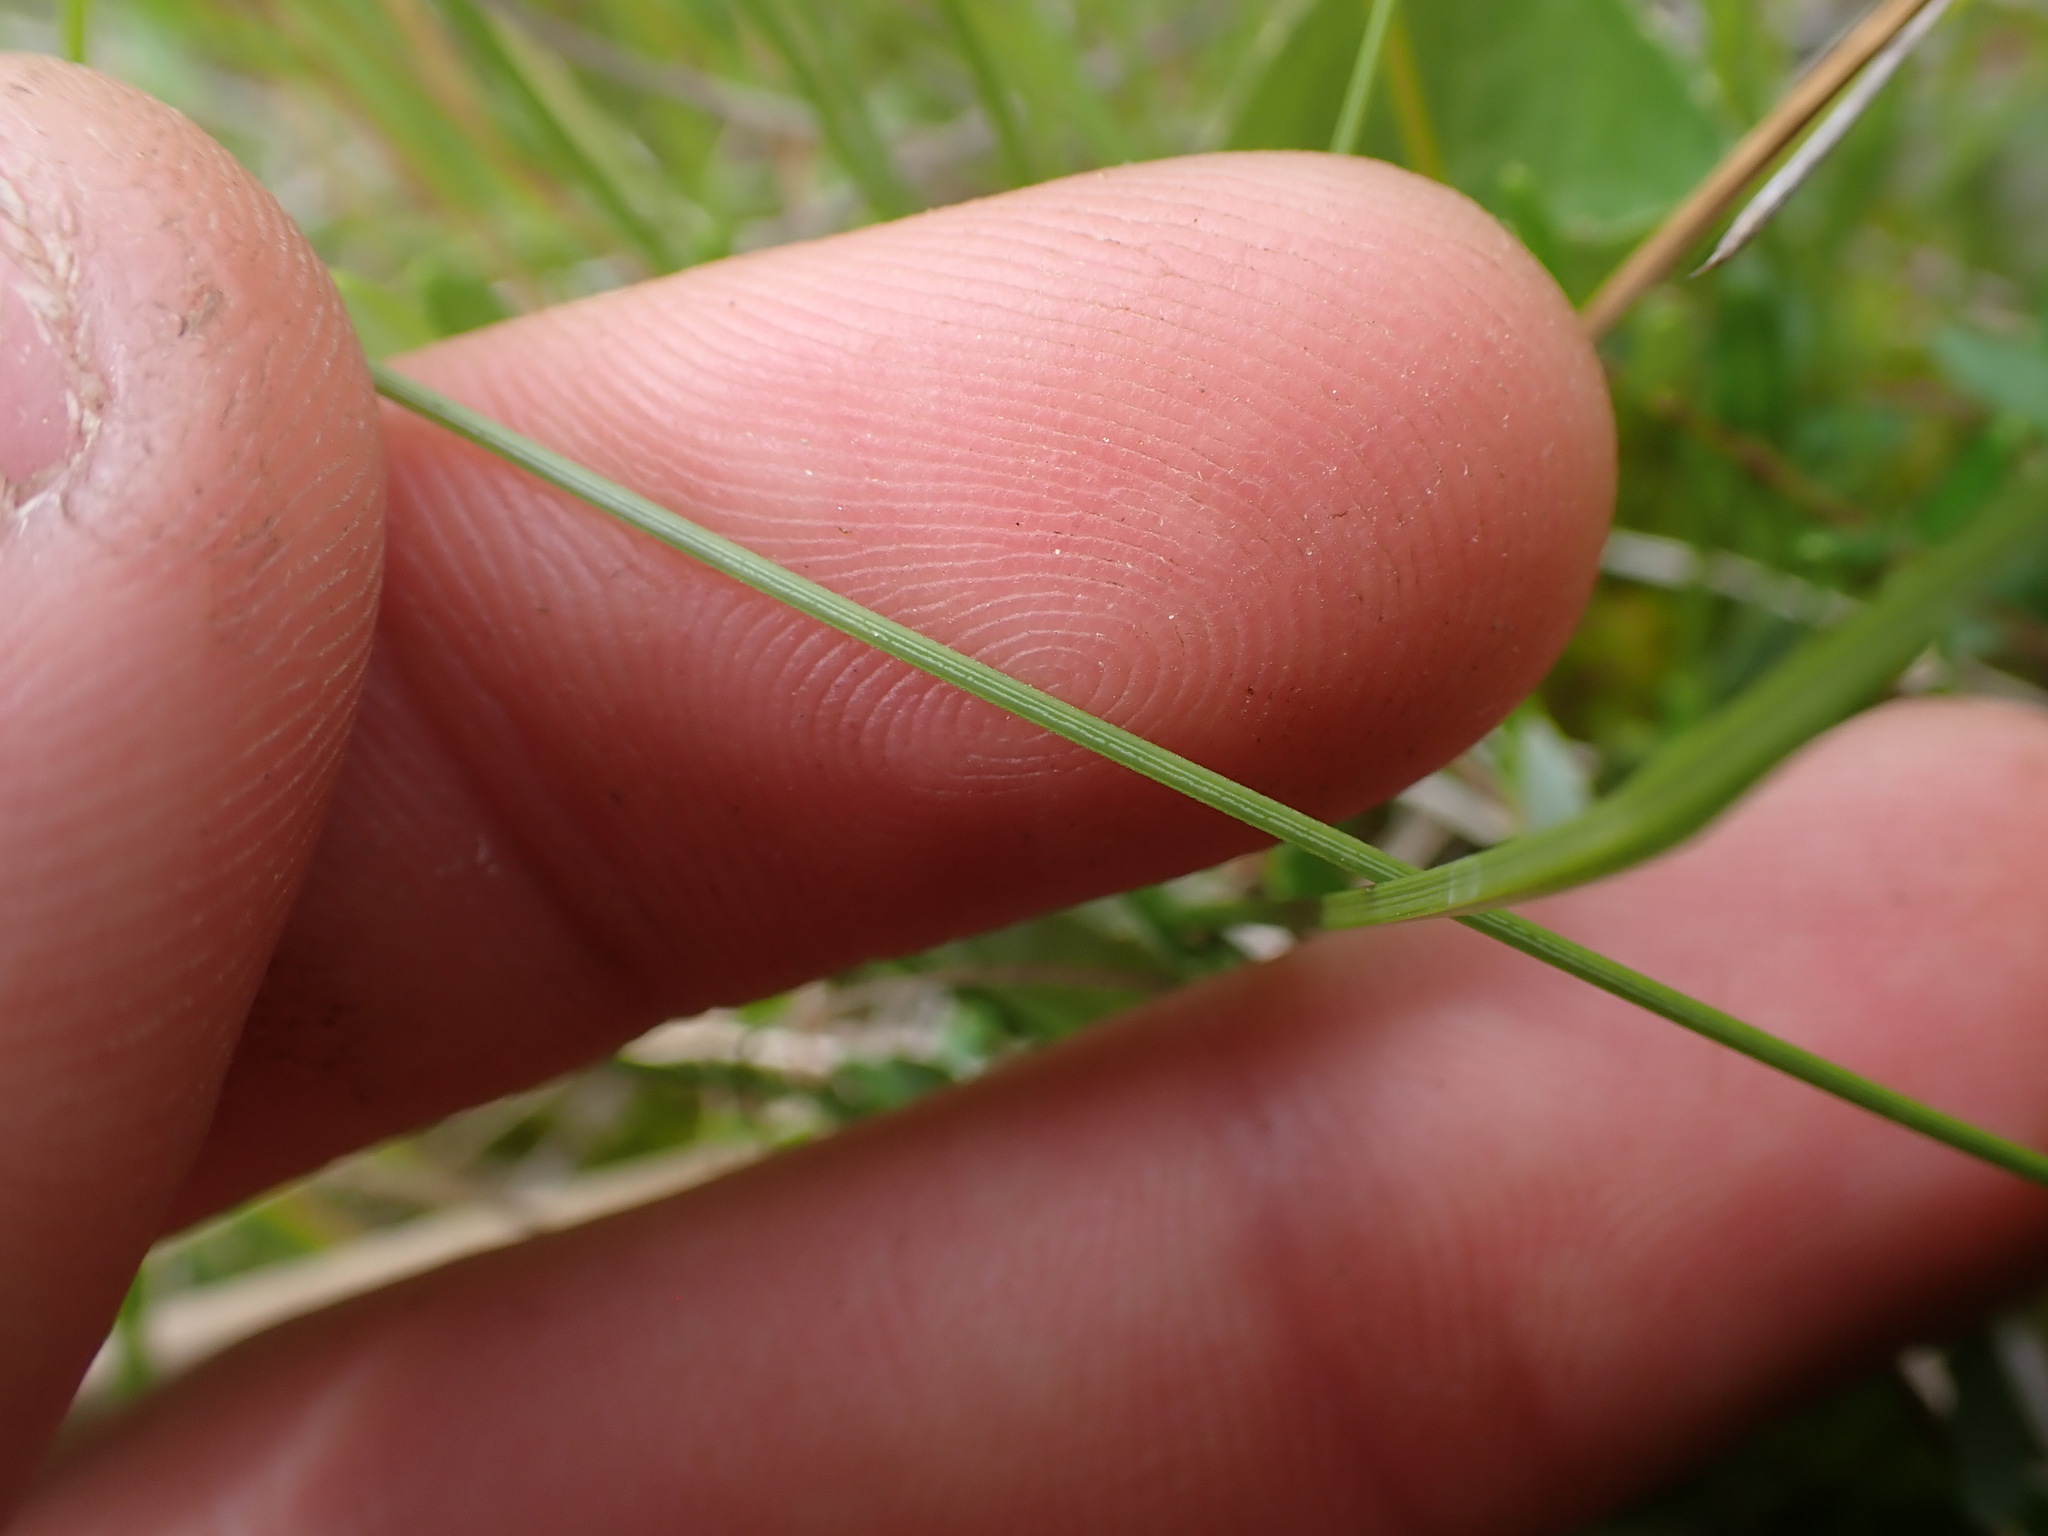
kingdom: Plantae
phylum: Tracheophyta
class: Liliopsida
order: Poales
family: Cyperaceae
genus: Trichophorum
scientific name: Trichophorum alpinum
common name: Alpine bulrush
